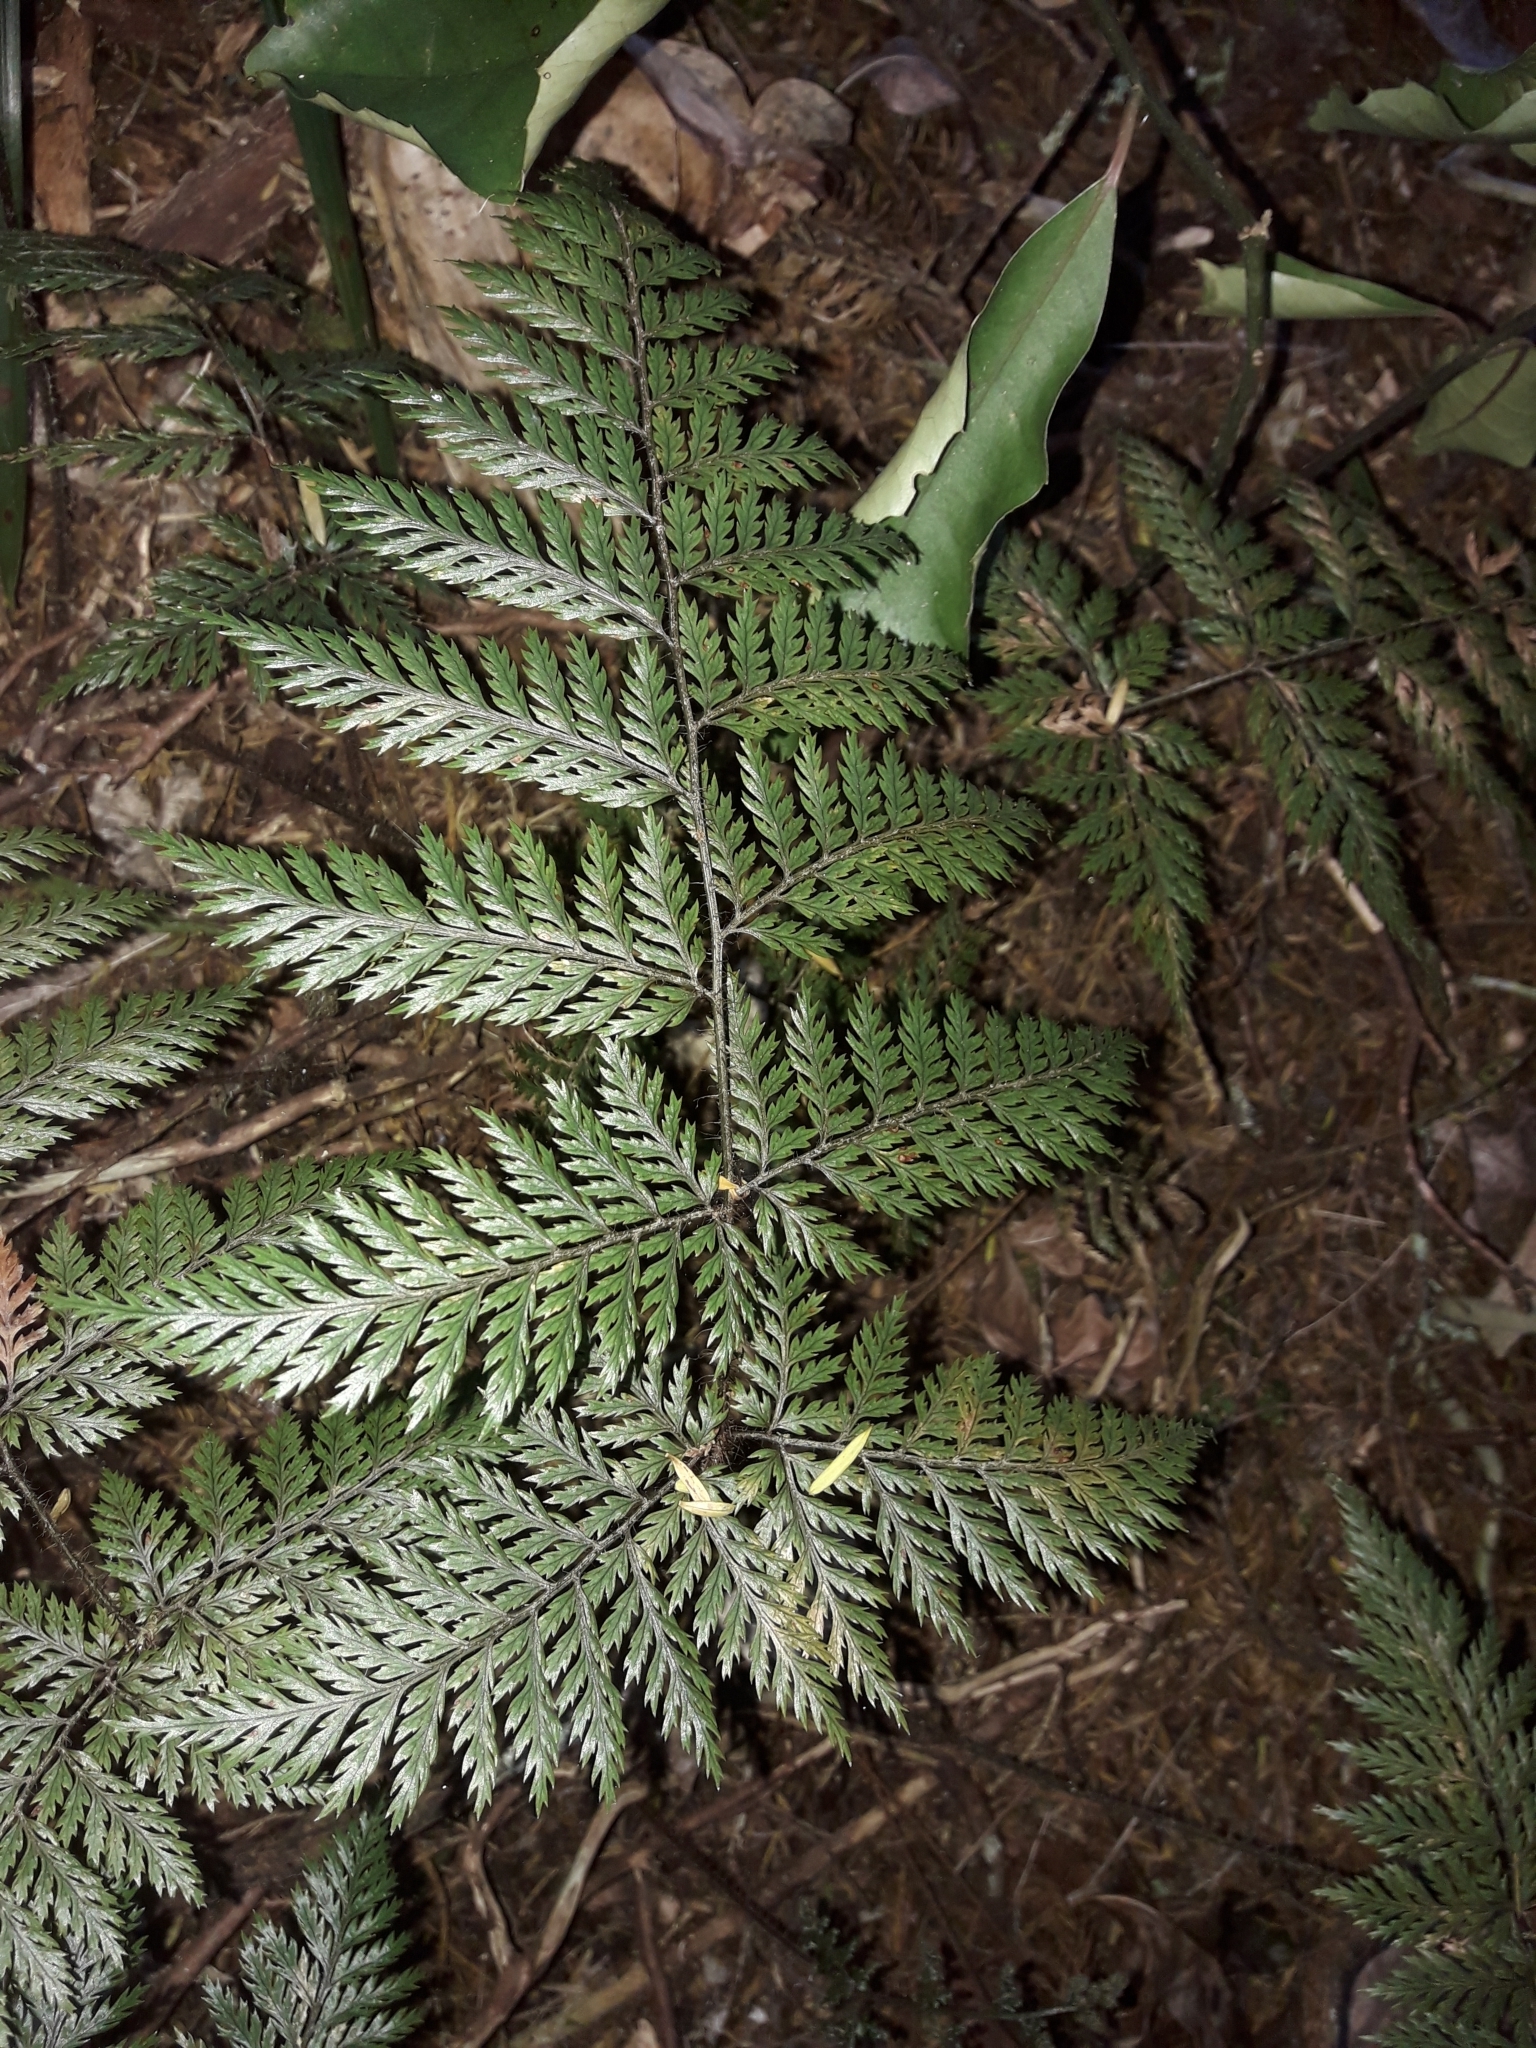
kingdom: Plantae
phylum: Tracheophyta
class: Polypodiopsida
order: Polypodiales
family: Dryopteridaceae
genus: Lastreopsis
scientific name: Lastreopsis hispida
